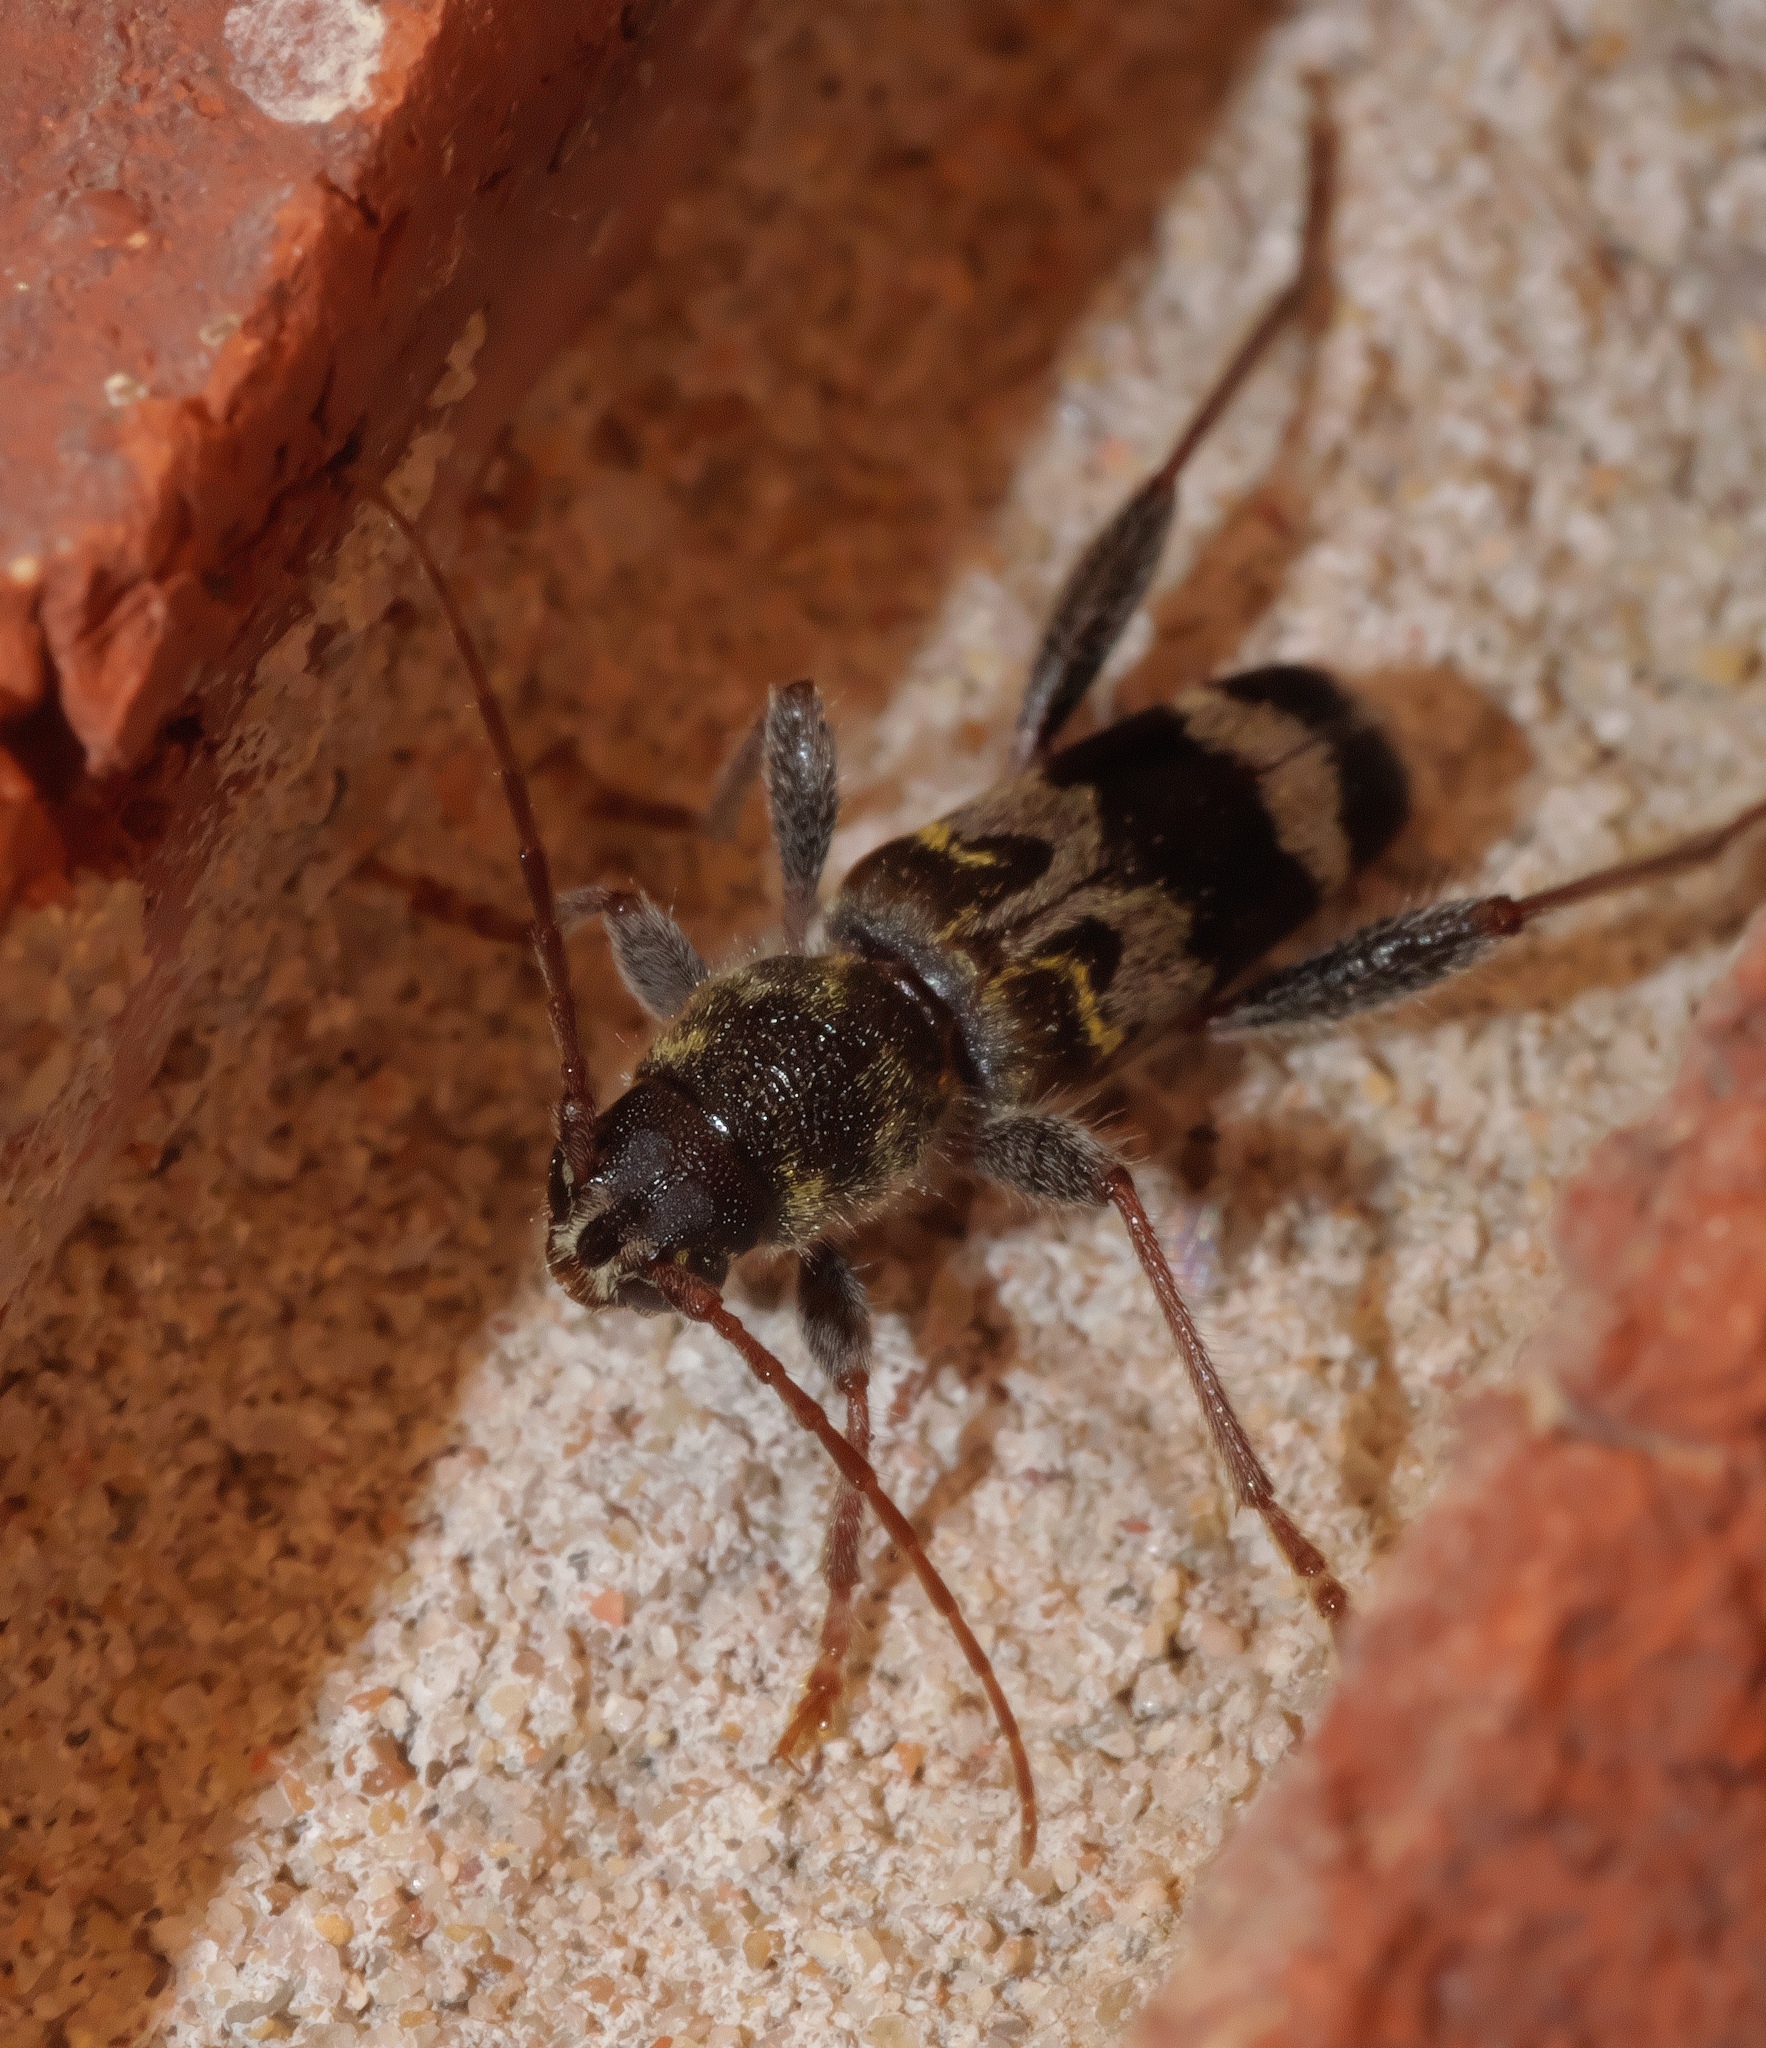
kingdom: Animalia
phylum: Arthropoda
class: Insecta
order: Coleoptera
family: Cerambycidae
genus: Xylotrechus
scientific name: Xylotrechus colonus
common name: Long-horned beetle
